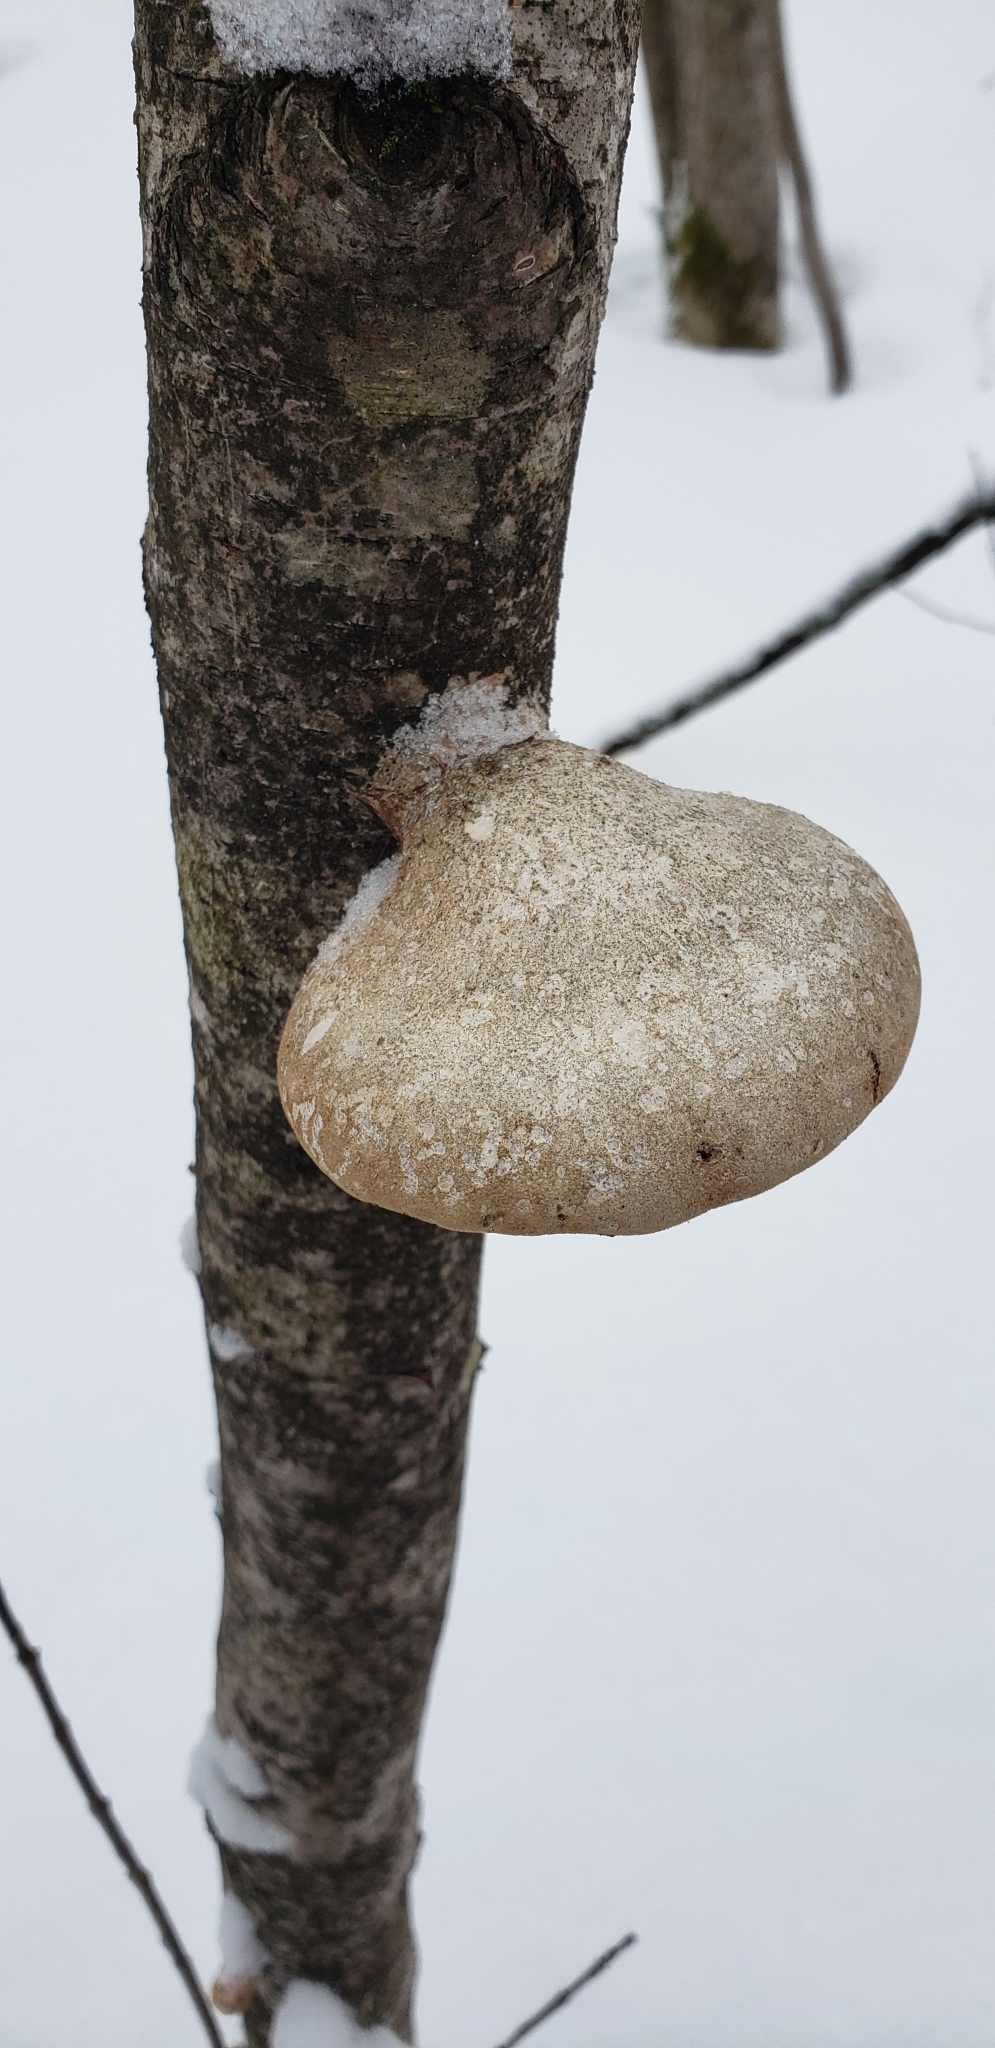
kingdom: Fungi
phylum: Basidiomycota
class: Agaricomycetes
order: Polyporales
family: Fomitopsidaceae
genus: Fomitopsis
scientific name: Fomitopsis betulina
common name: Birch polypore
